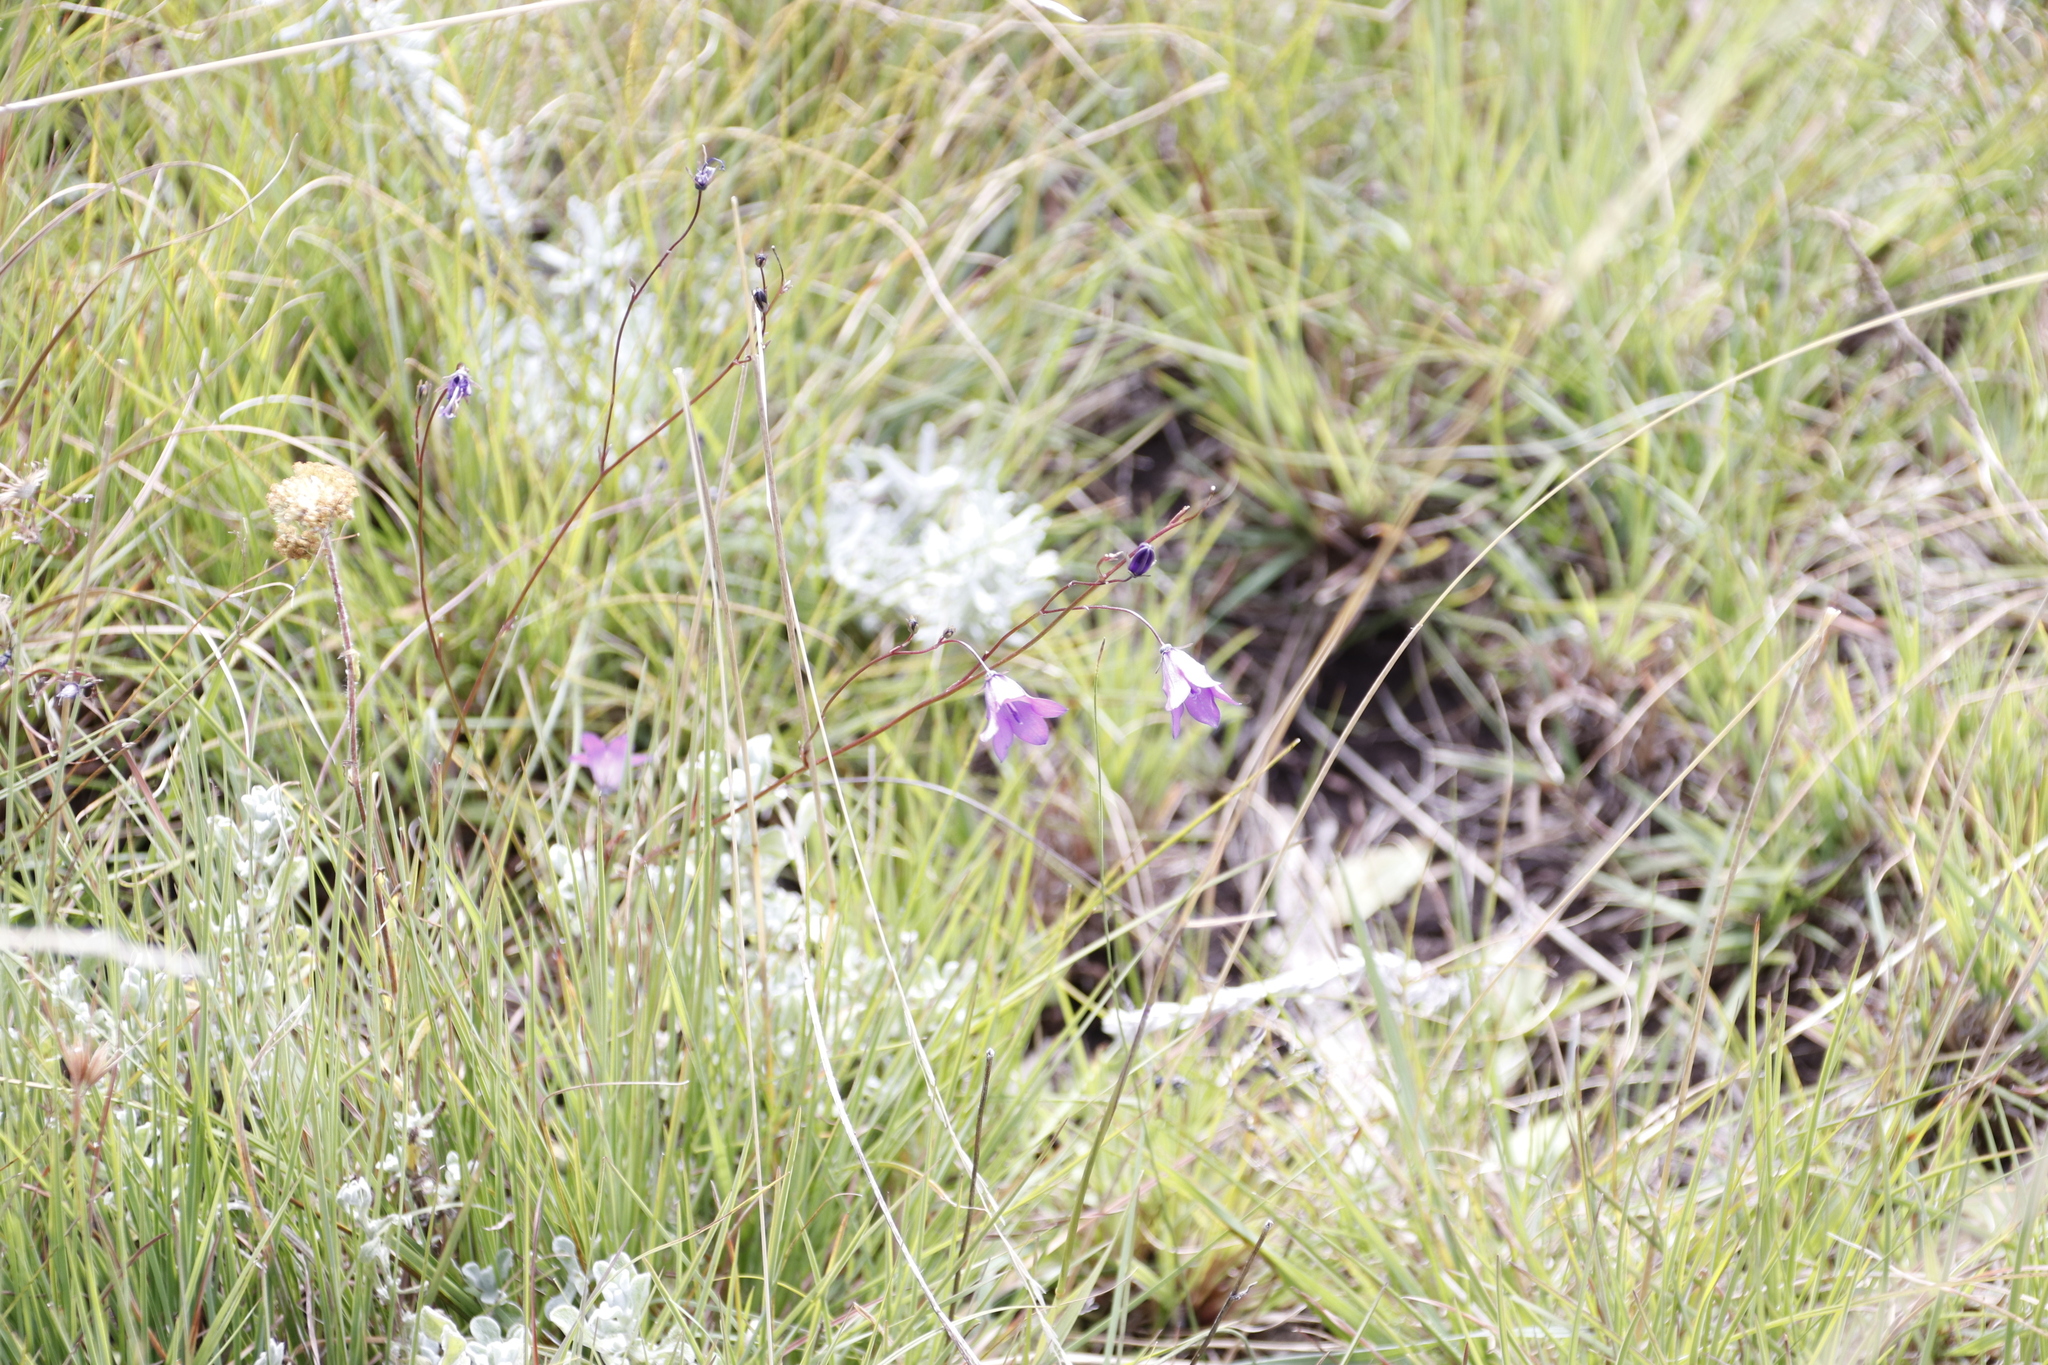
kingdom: Plantae
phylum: Tracheophyta
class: Magnoliopsida
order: Asterales
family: Campanulaceae
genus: Wahlenbergia
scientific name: Wahlenbergia krebsii
